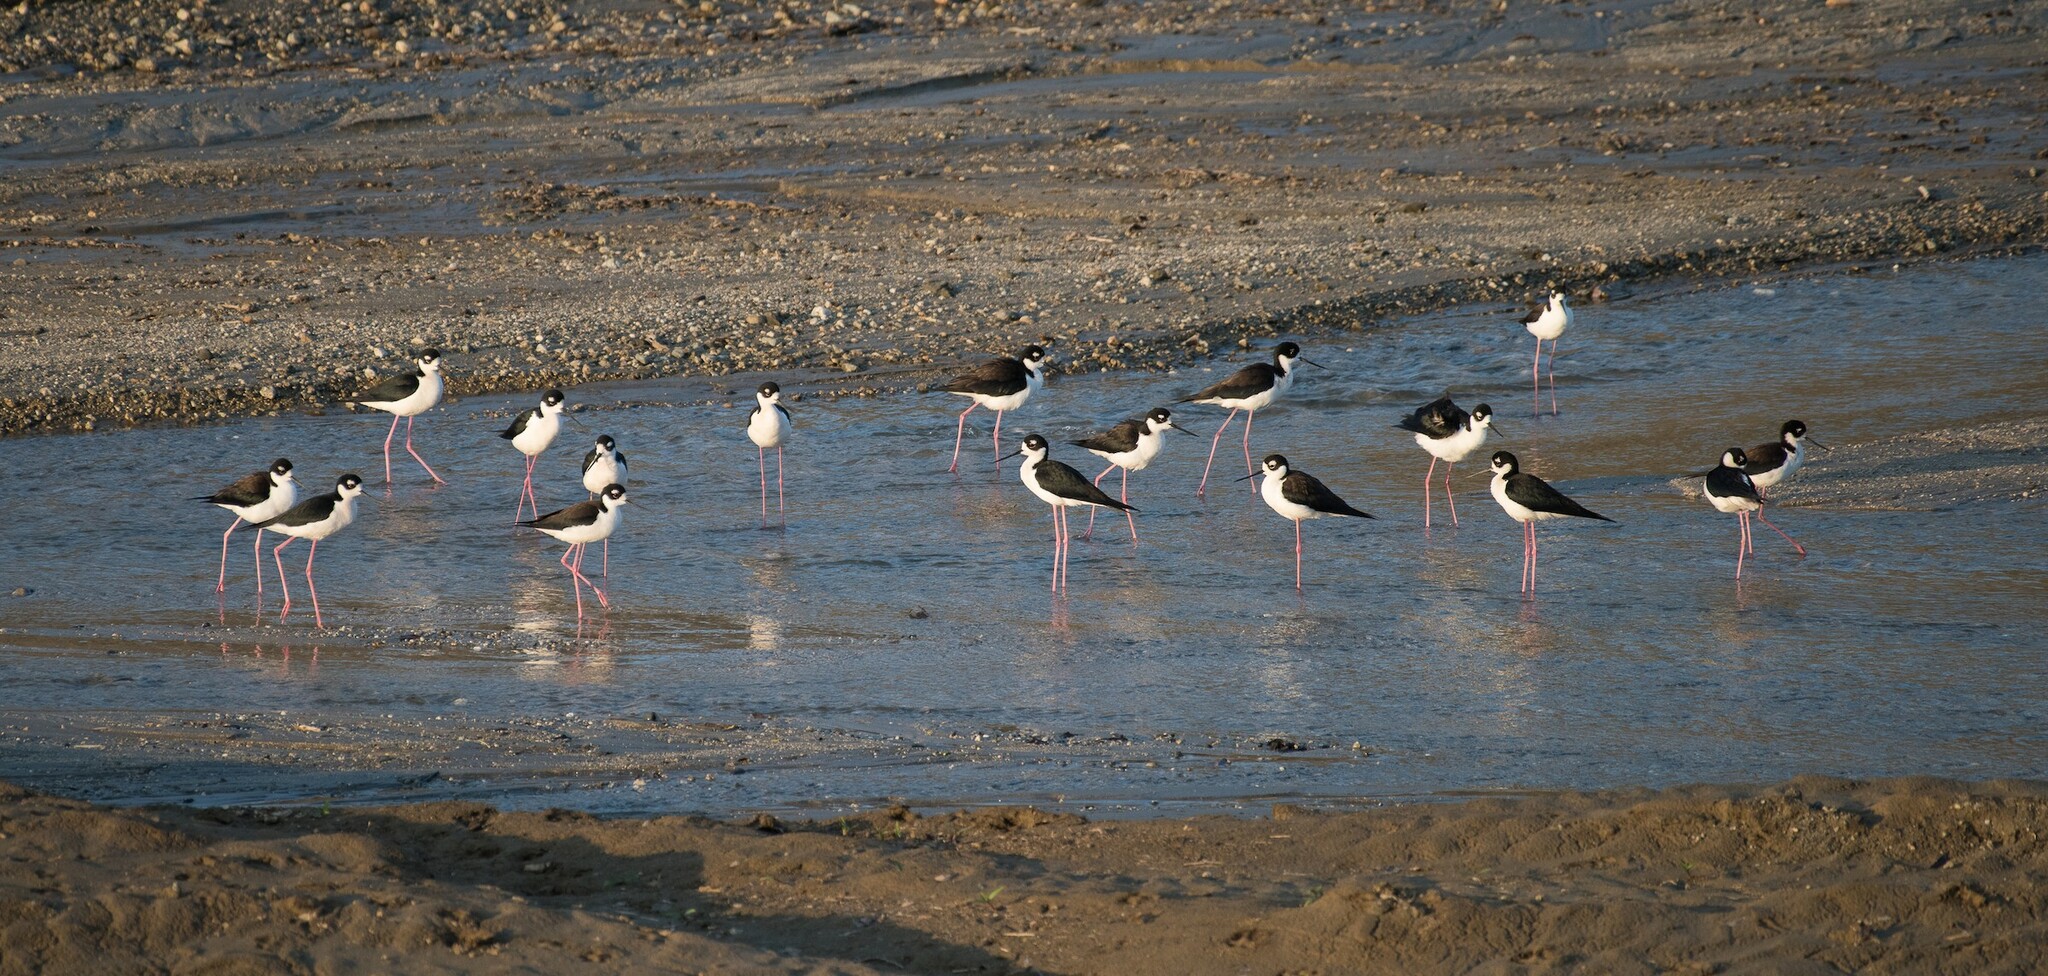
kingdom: Animalia
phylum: Chordata
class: Aves
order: Charadriiformes
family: Recurvirostridae
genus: Himantopus
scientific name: Himantopus mexicanus
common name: Black-necked stilt
